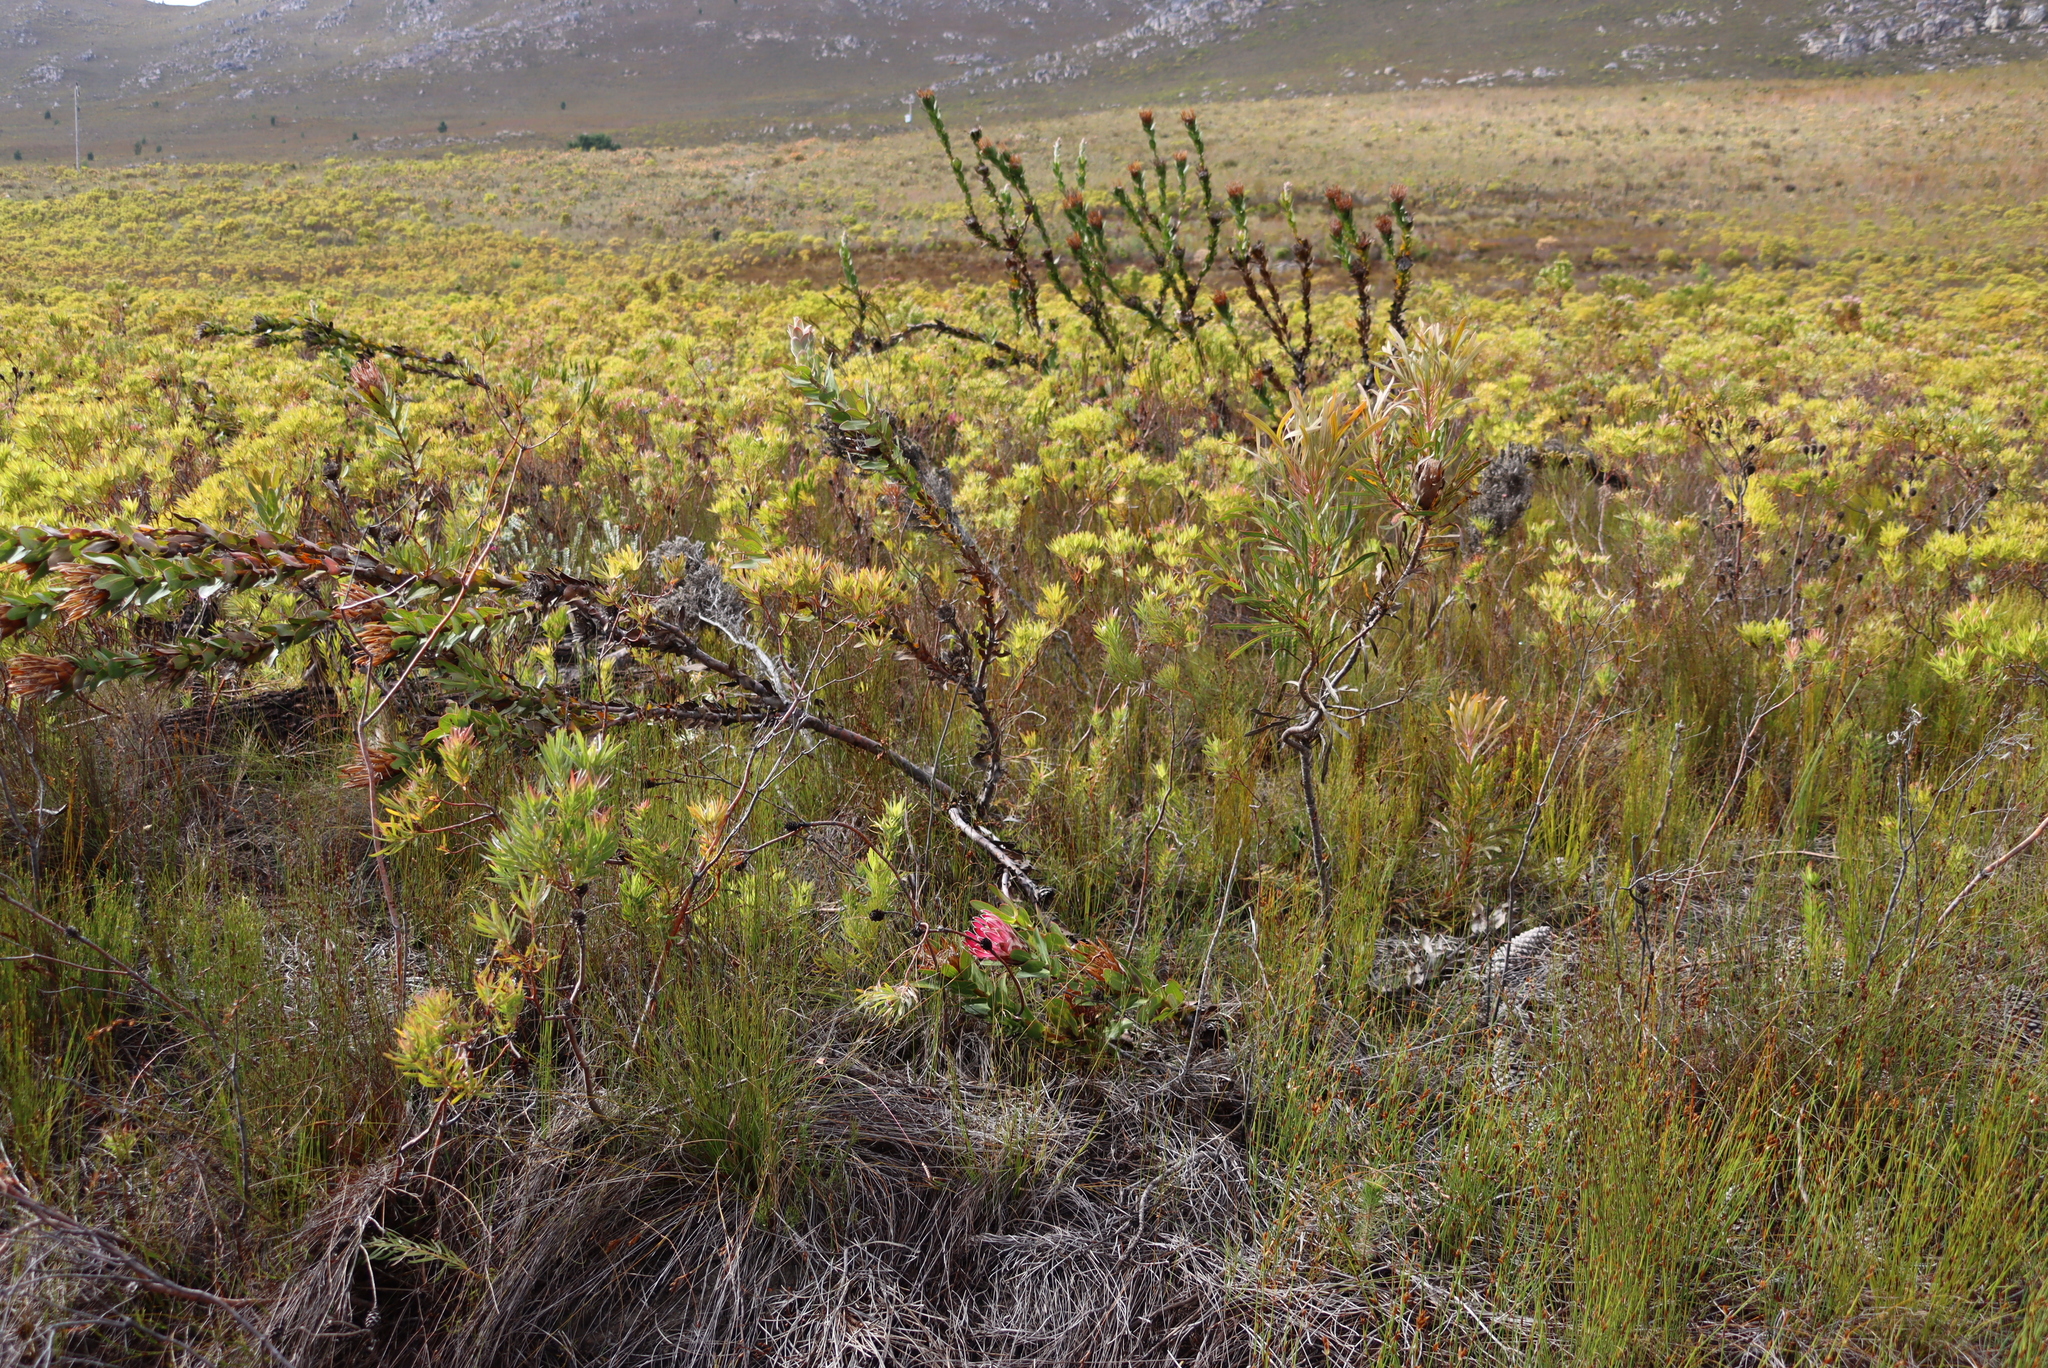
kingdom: Plantae
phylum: Tracheophyta
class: Magnoliopsida
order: Proteales
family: Proteaceae
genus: Protea
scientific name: Protea compacta
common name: Bot river protea
